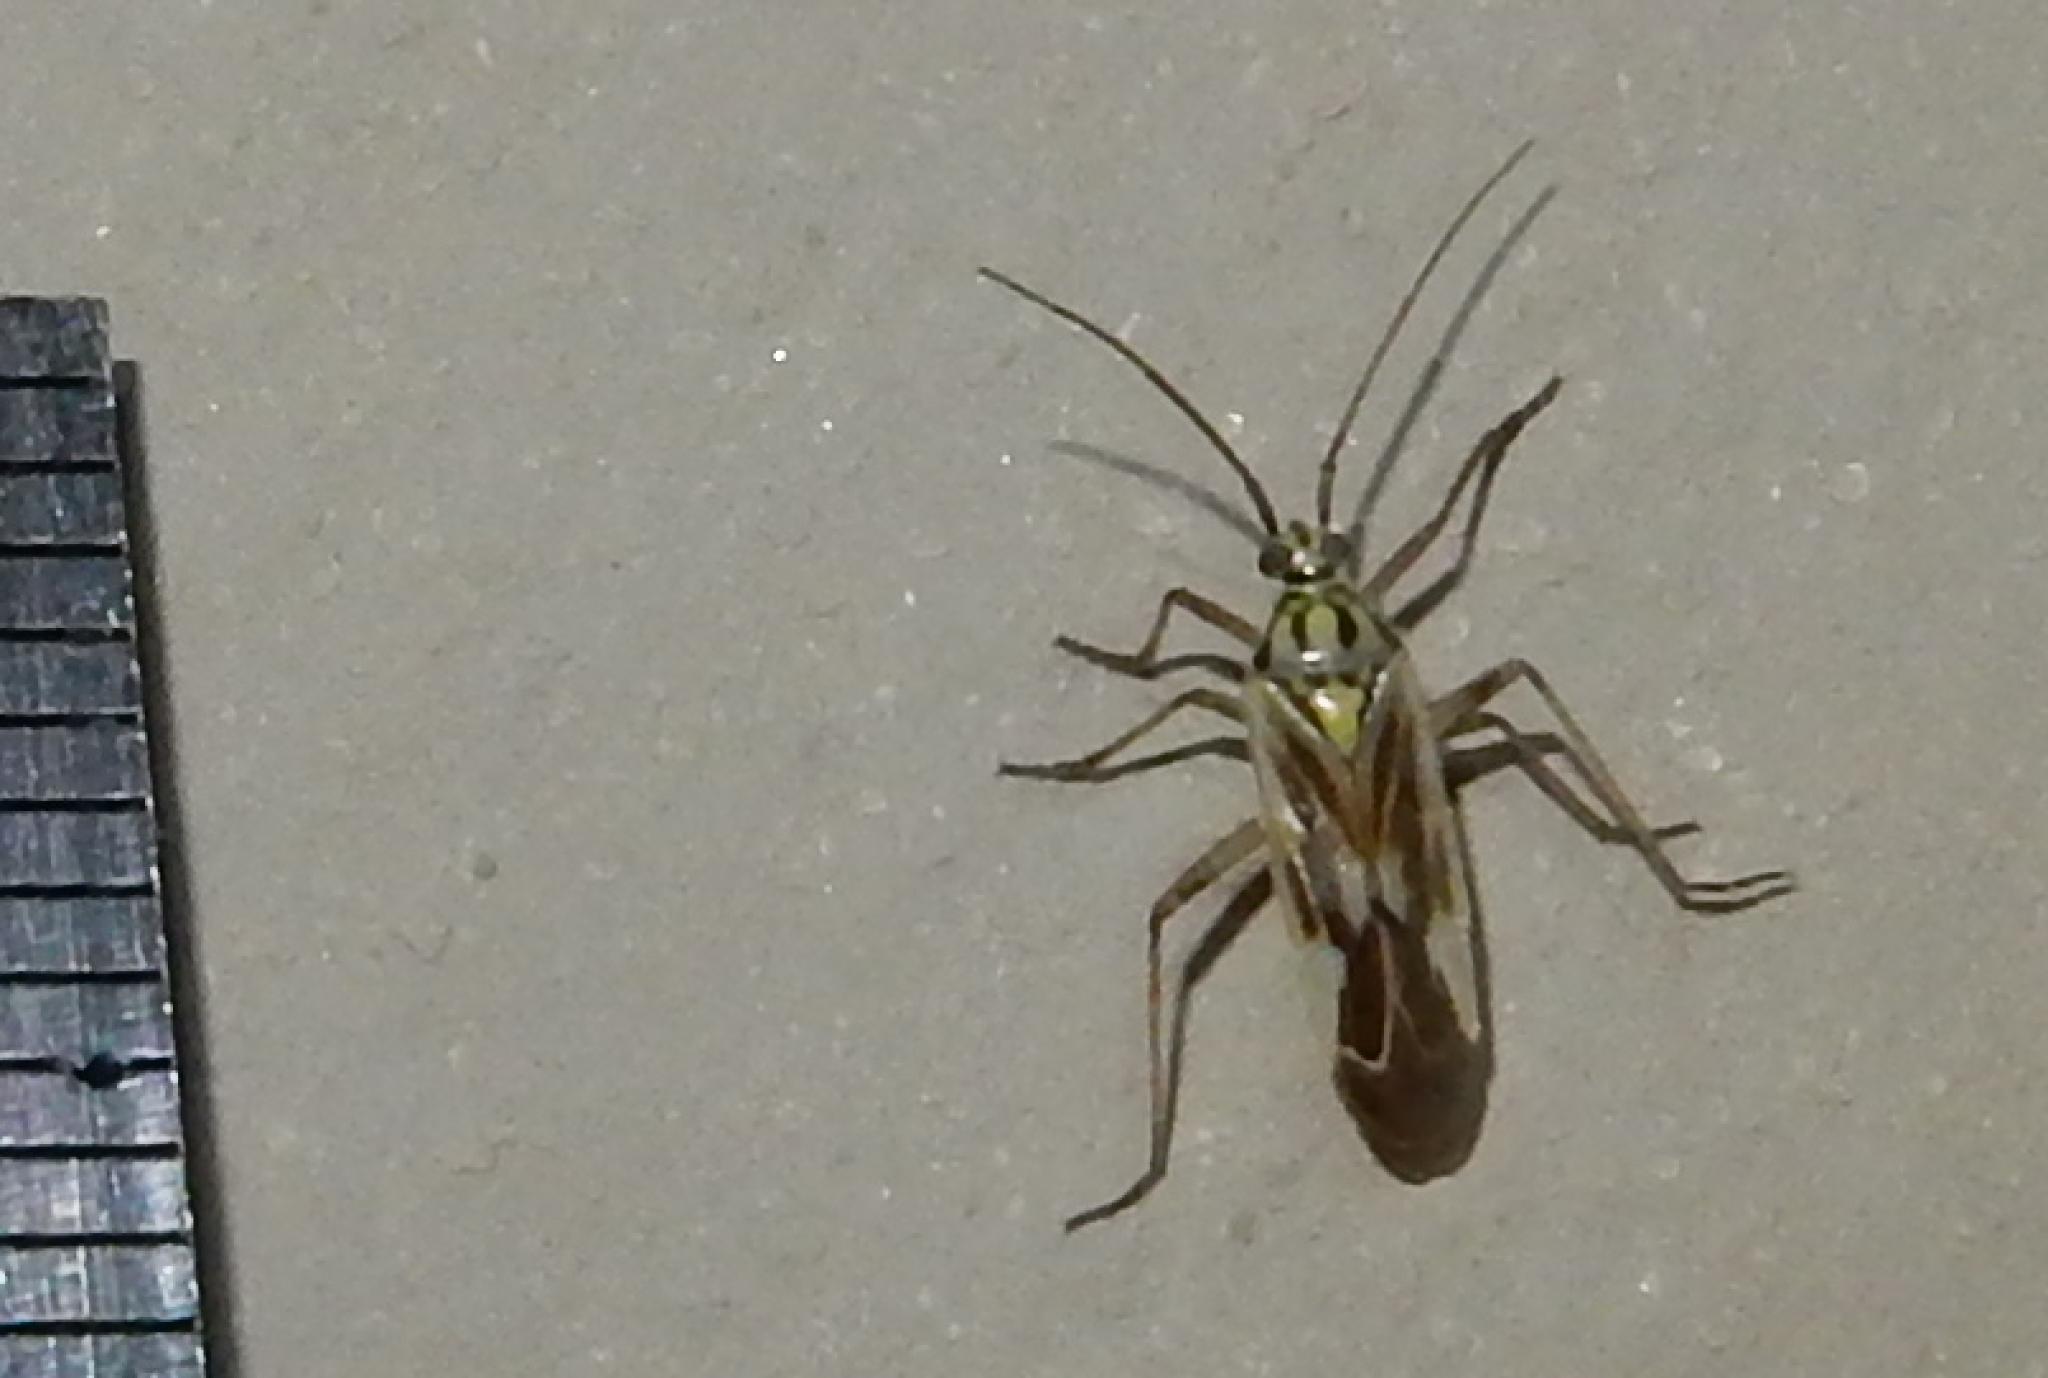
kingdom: Animalia
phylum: Arthropoda
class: Insecta
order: Hemiptera
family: Miridae
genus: Stenotus
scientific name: Stenotus nigroquadristriatus
